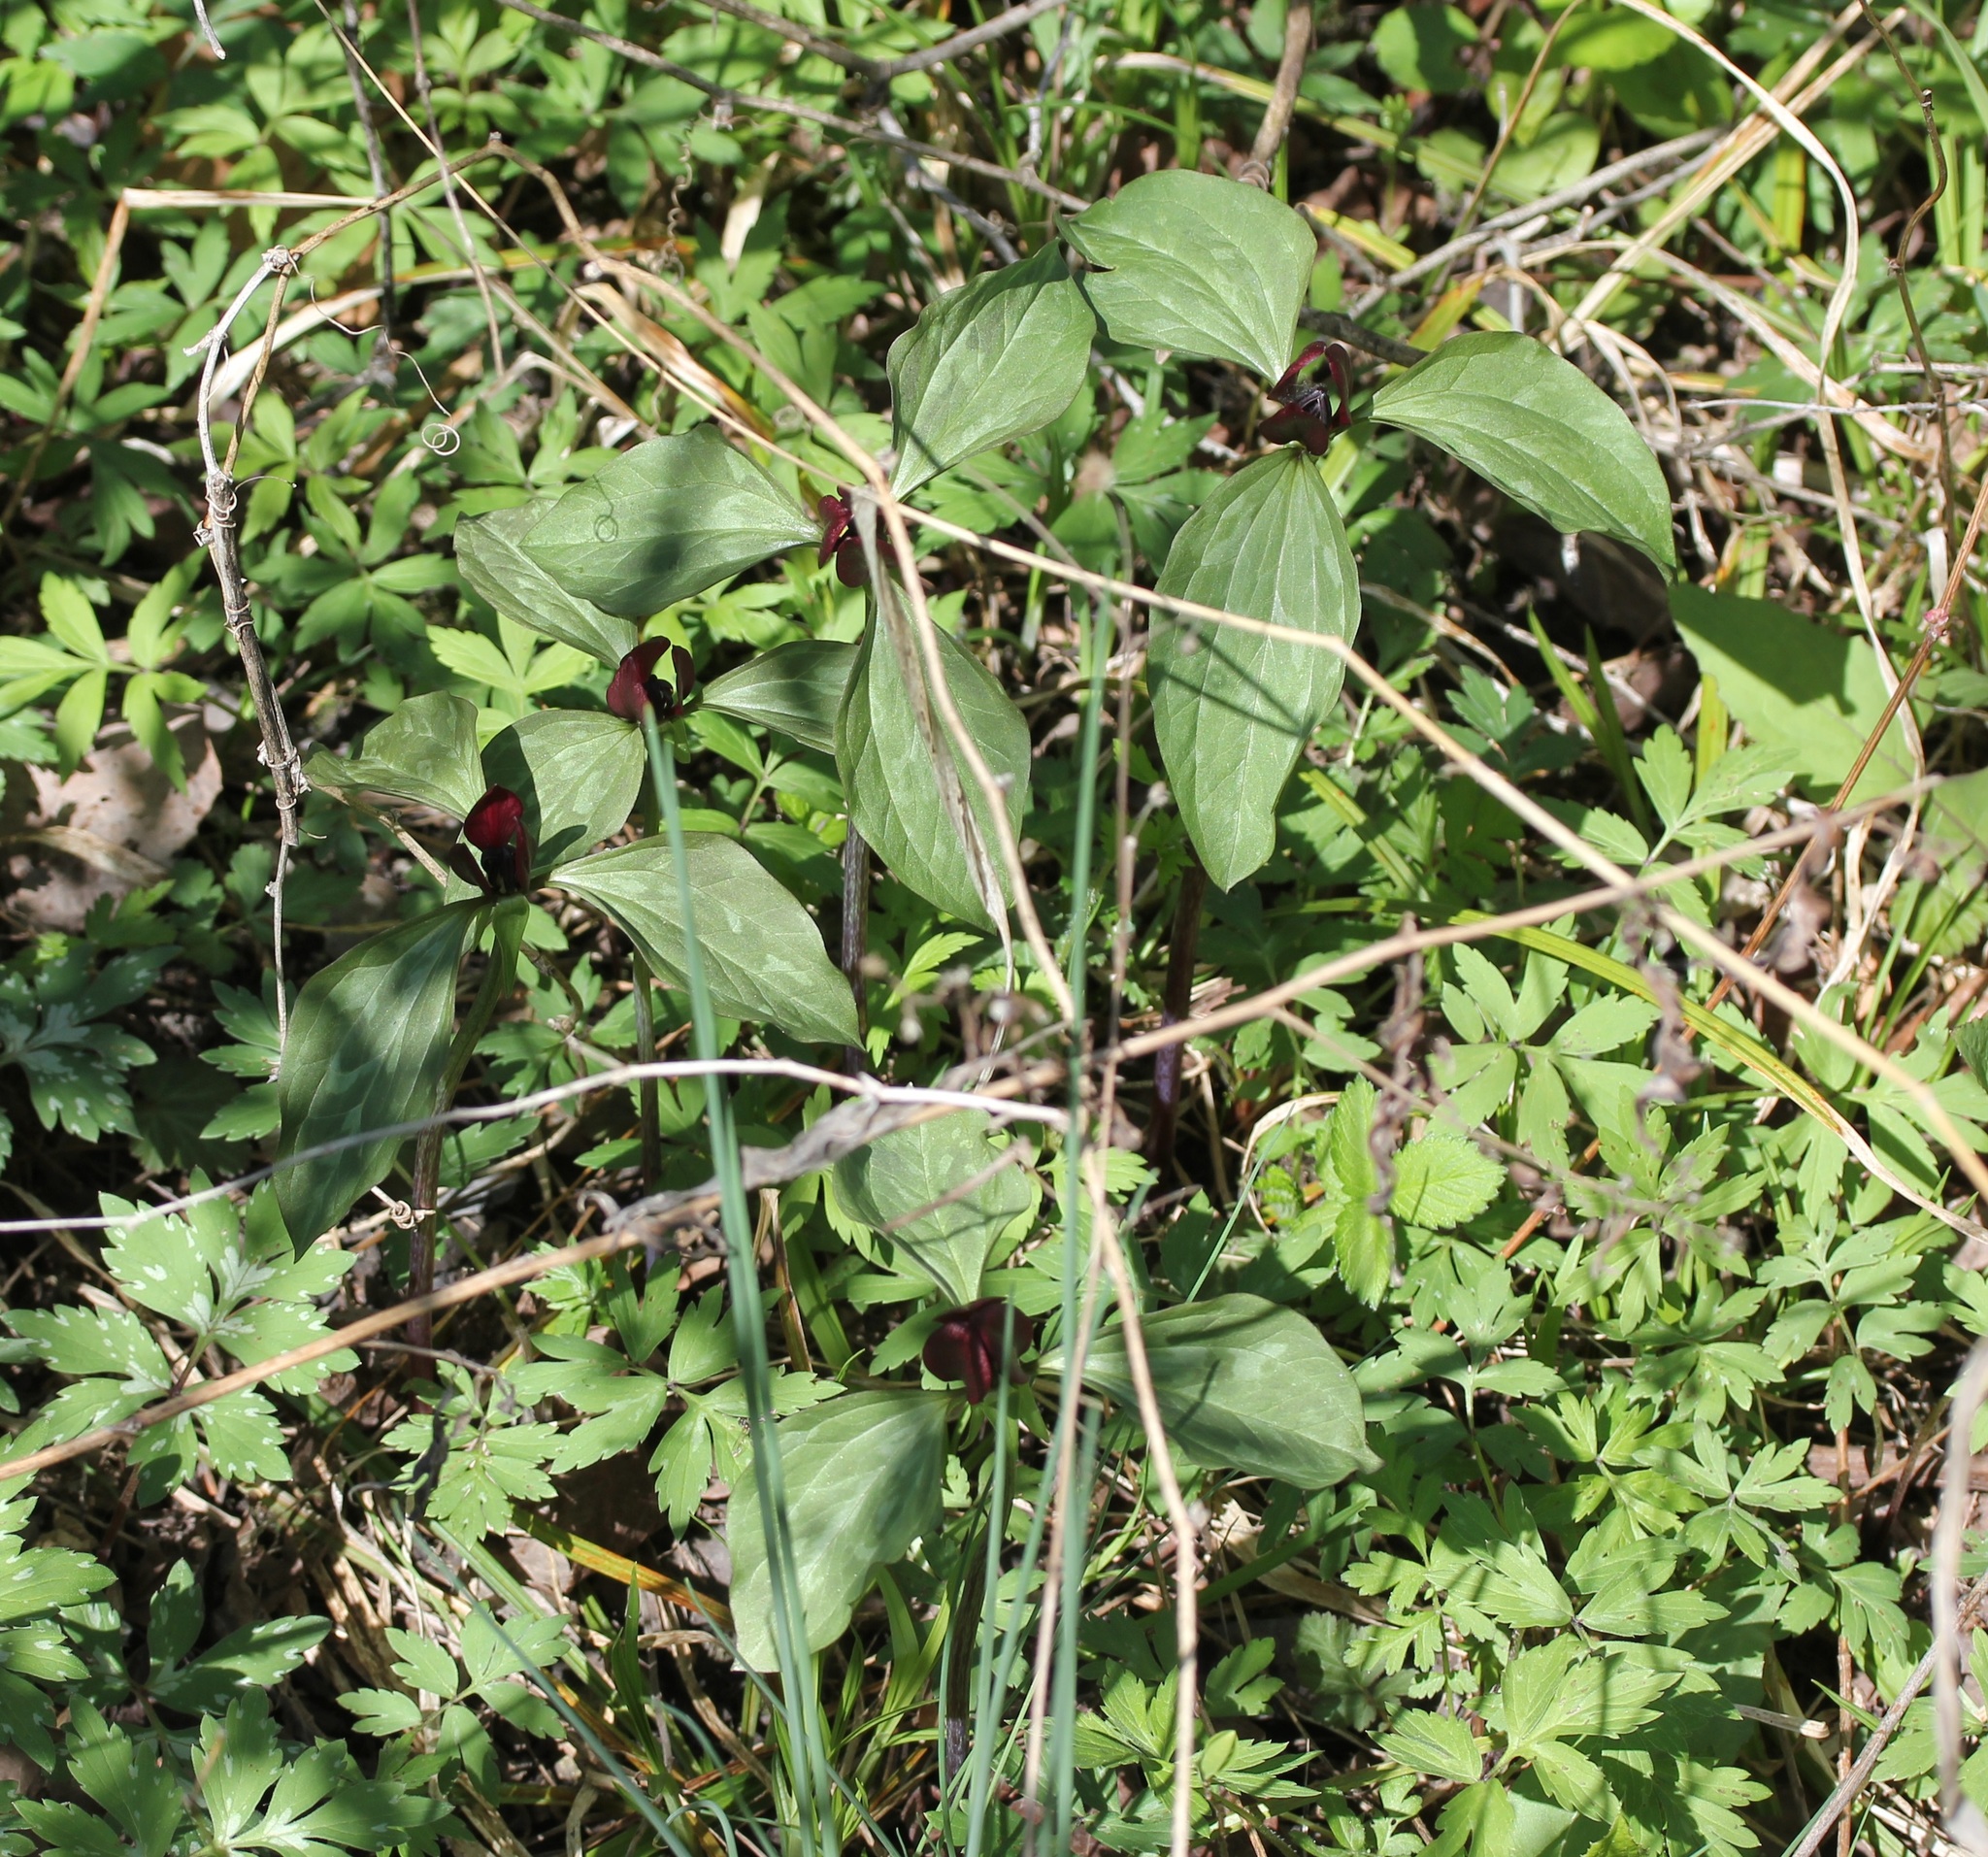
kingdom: Plantae
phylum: Tracheophyta
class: Liliopsida
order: Liliales
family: Melanthiaceae
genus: Trillium
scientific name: Trillium recurvatum
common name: Bloody butcher
